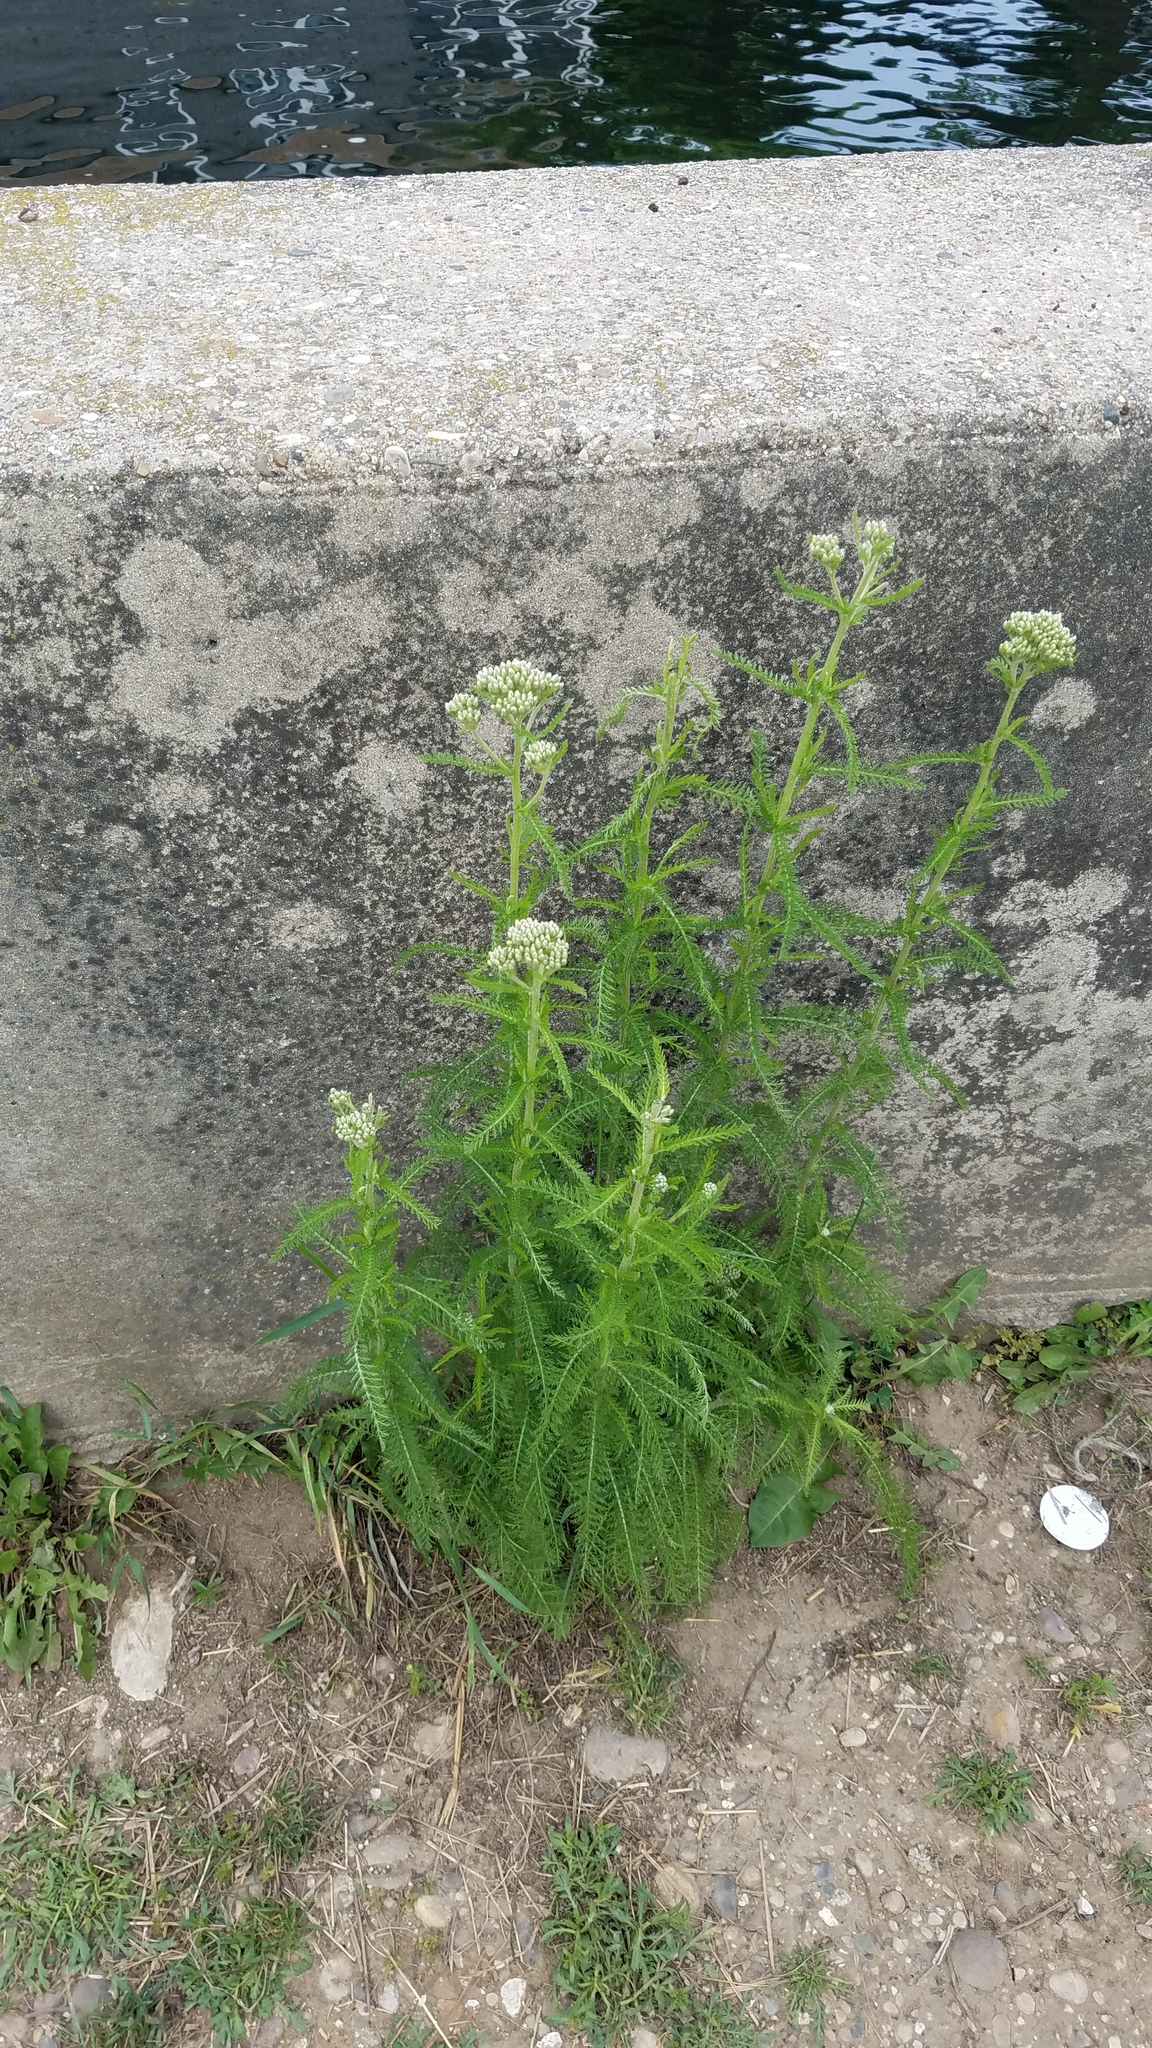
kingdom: Plantae
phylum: Tracheophyta
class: Magnoliopsida
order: Asterales
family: Asteraceae
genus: Achillea
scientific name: Achillea millefolium
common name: Yarrow
